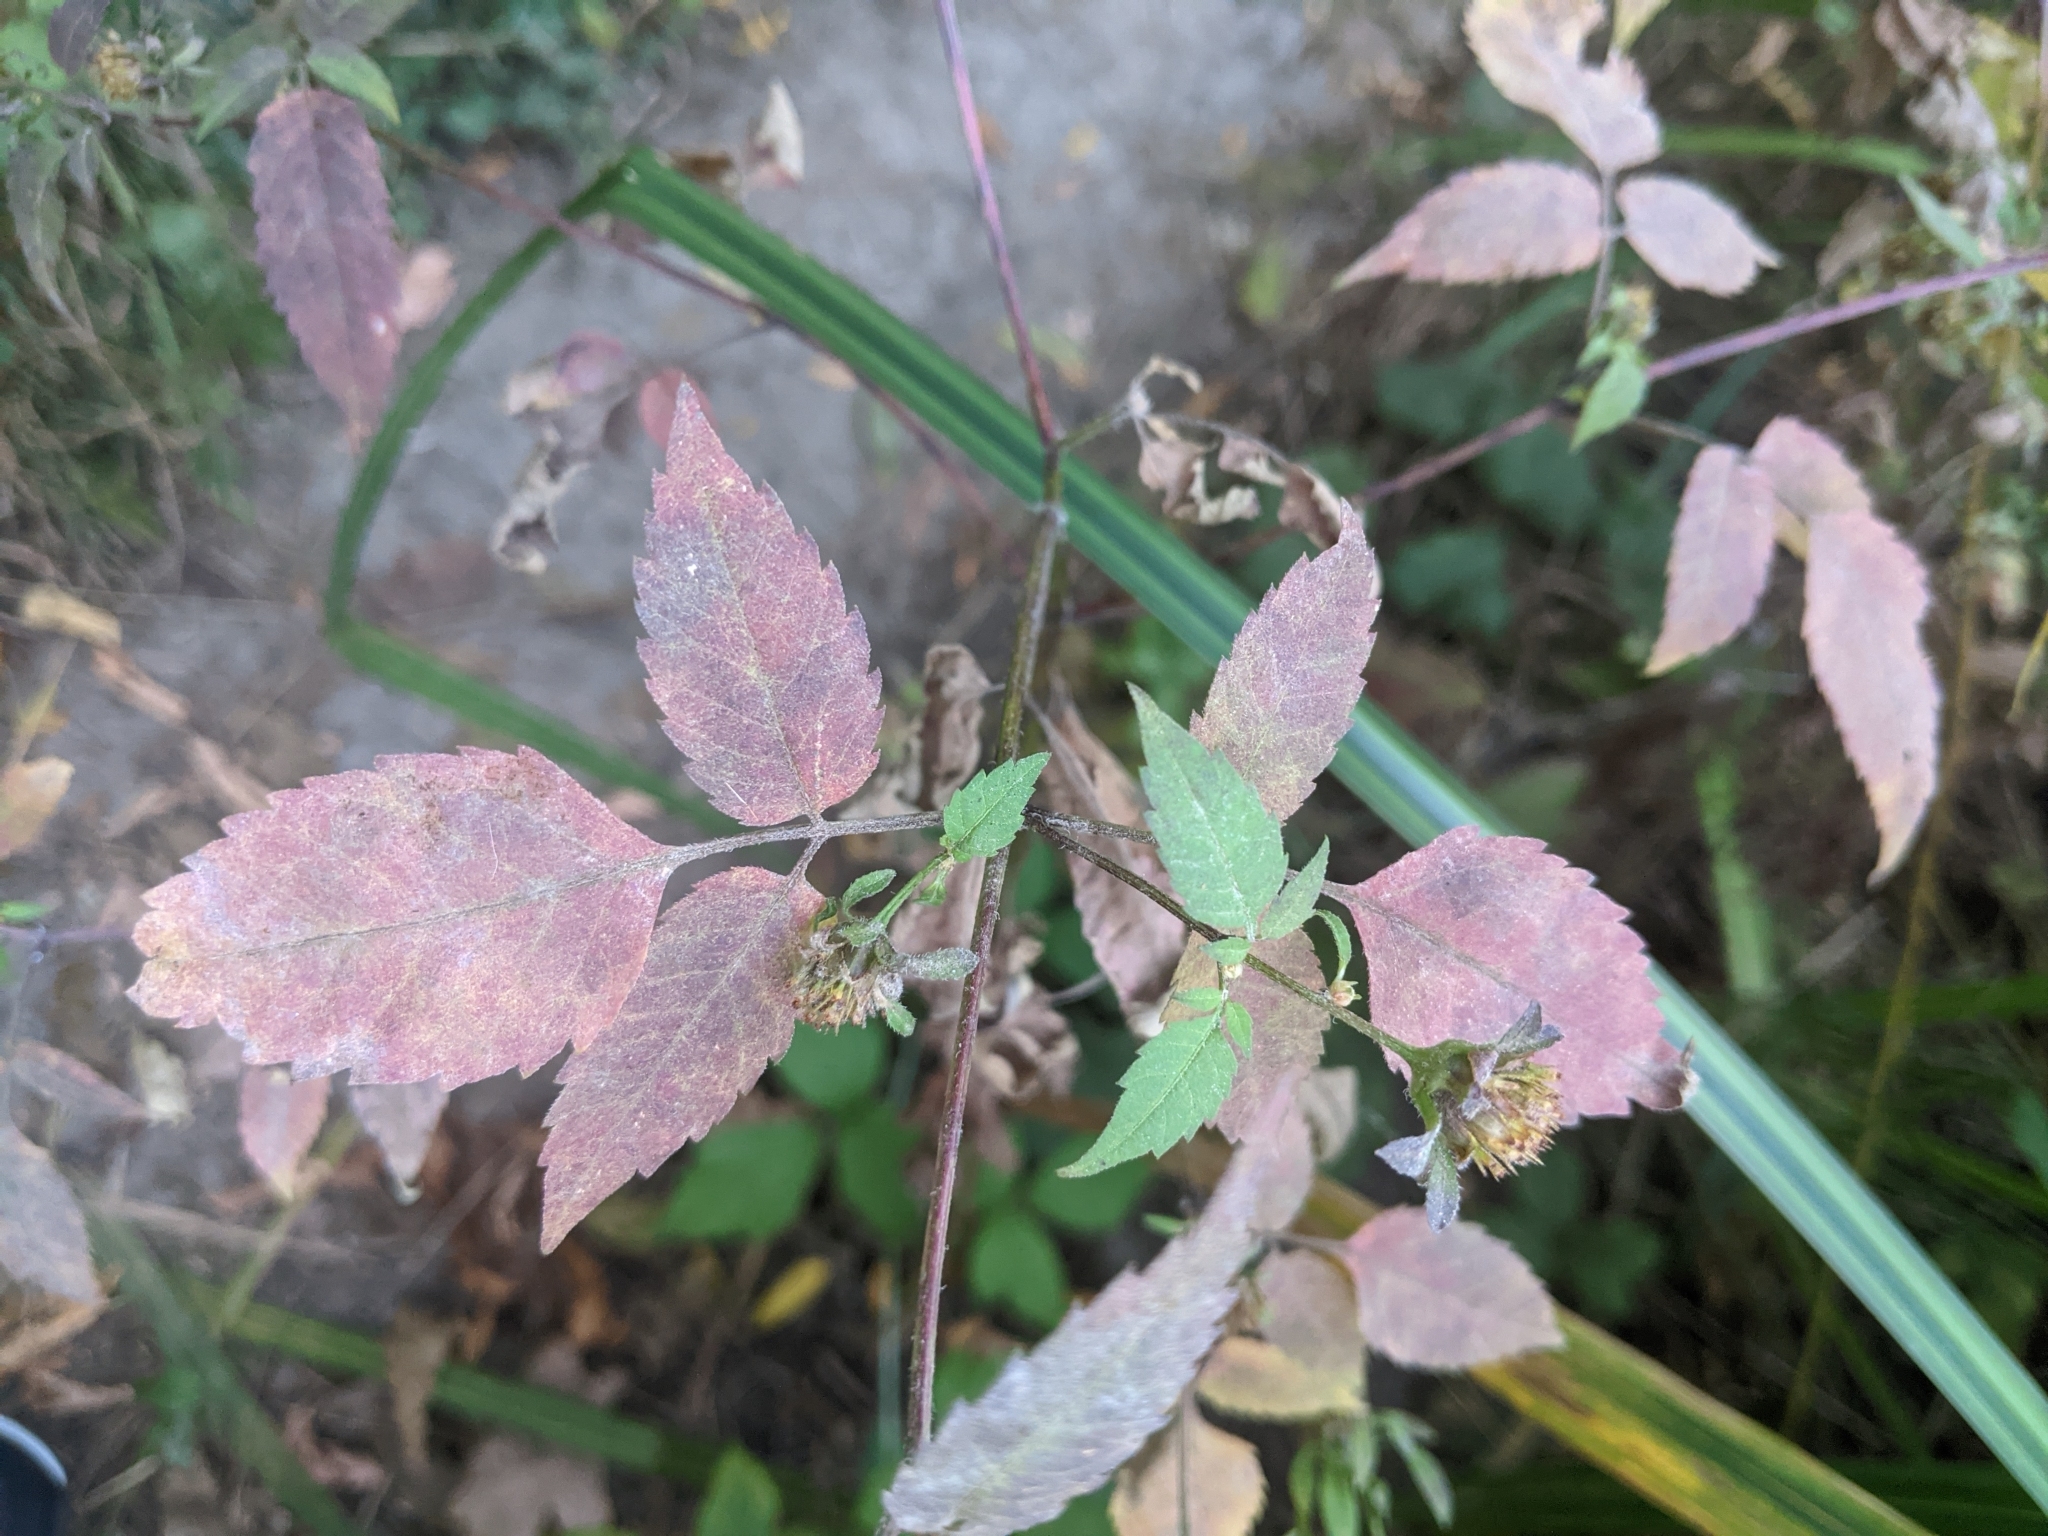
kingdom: Plantae
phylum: Tracheophyta
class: Magnoliopsida
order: Asterales
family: Asteraceae
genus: Bidens
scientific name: Bidens frondosa
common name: Beggarticks
